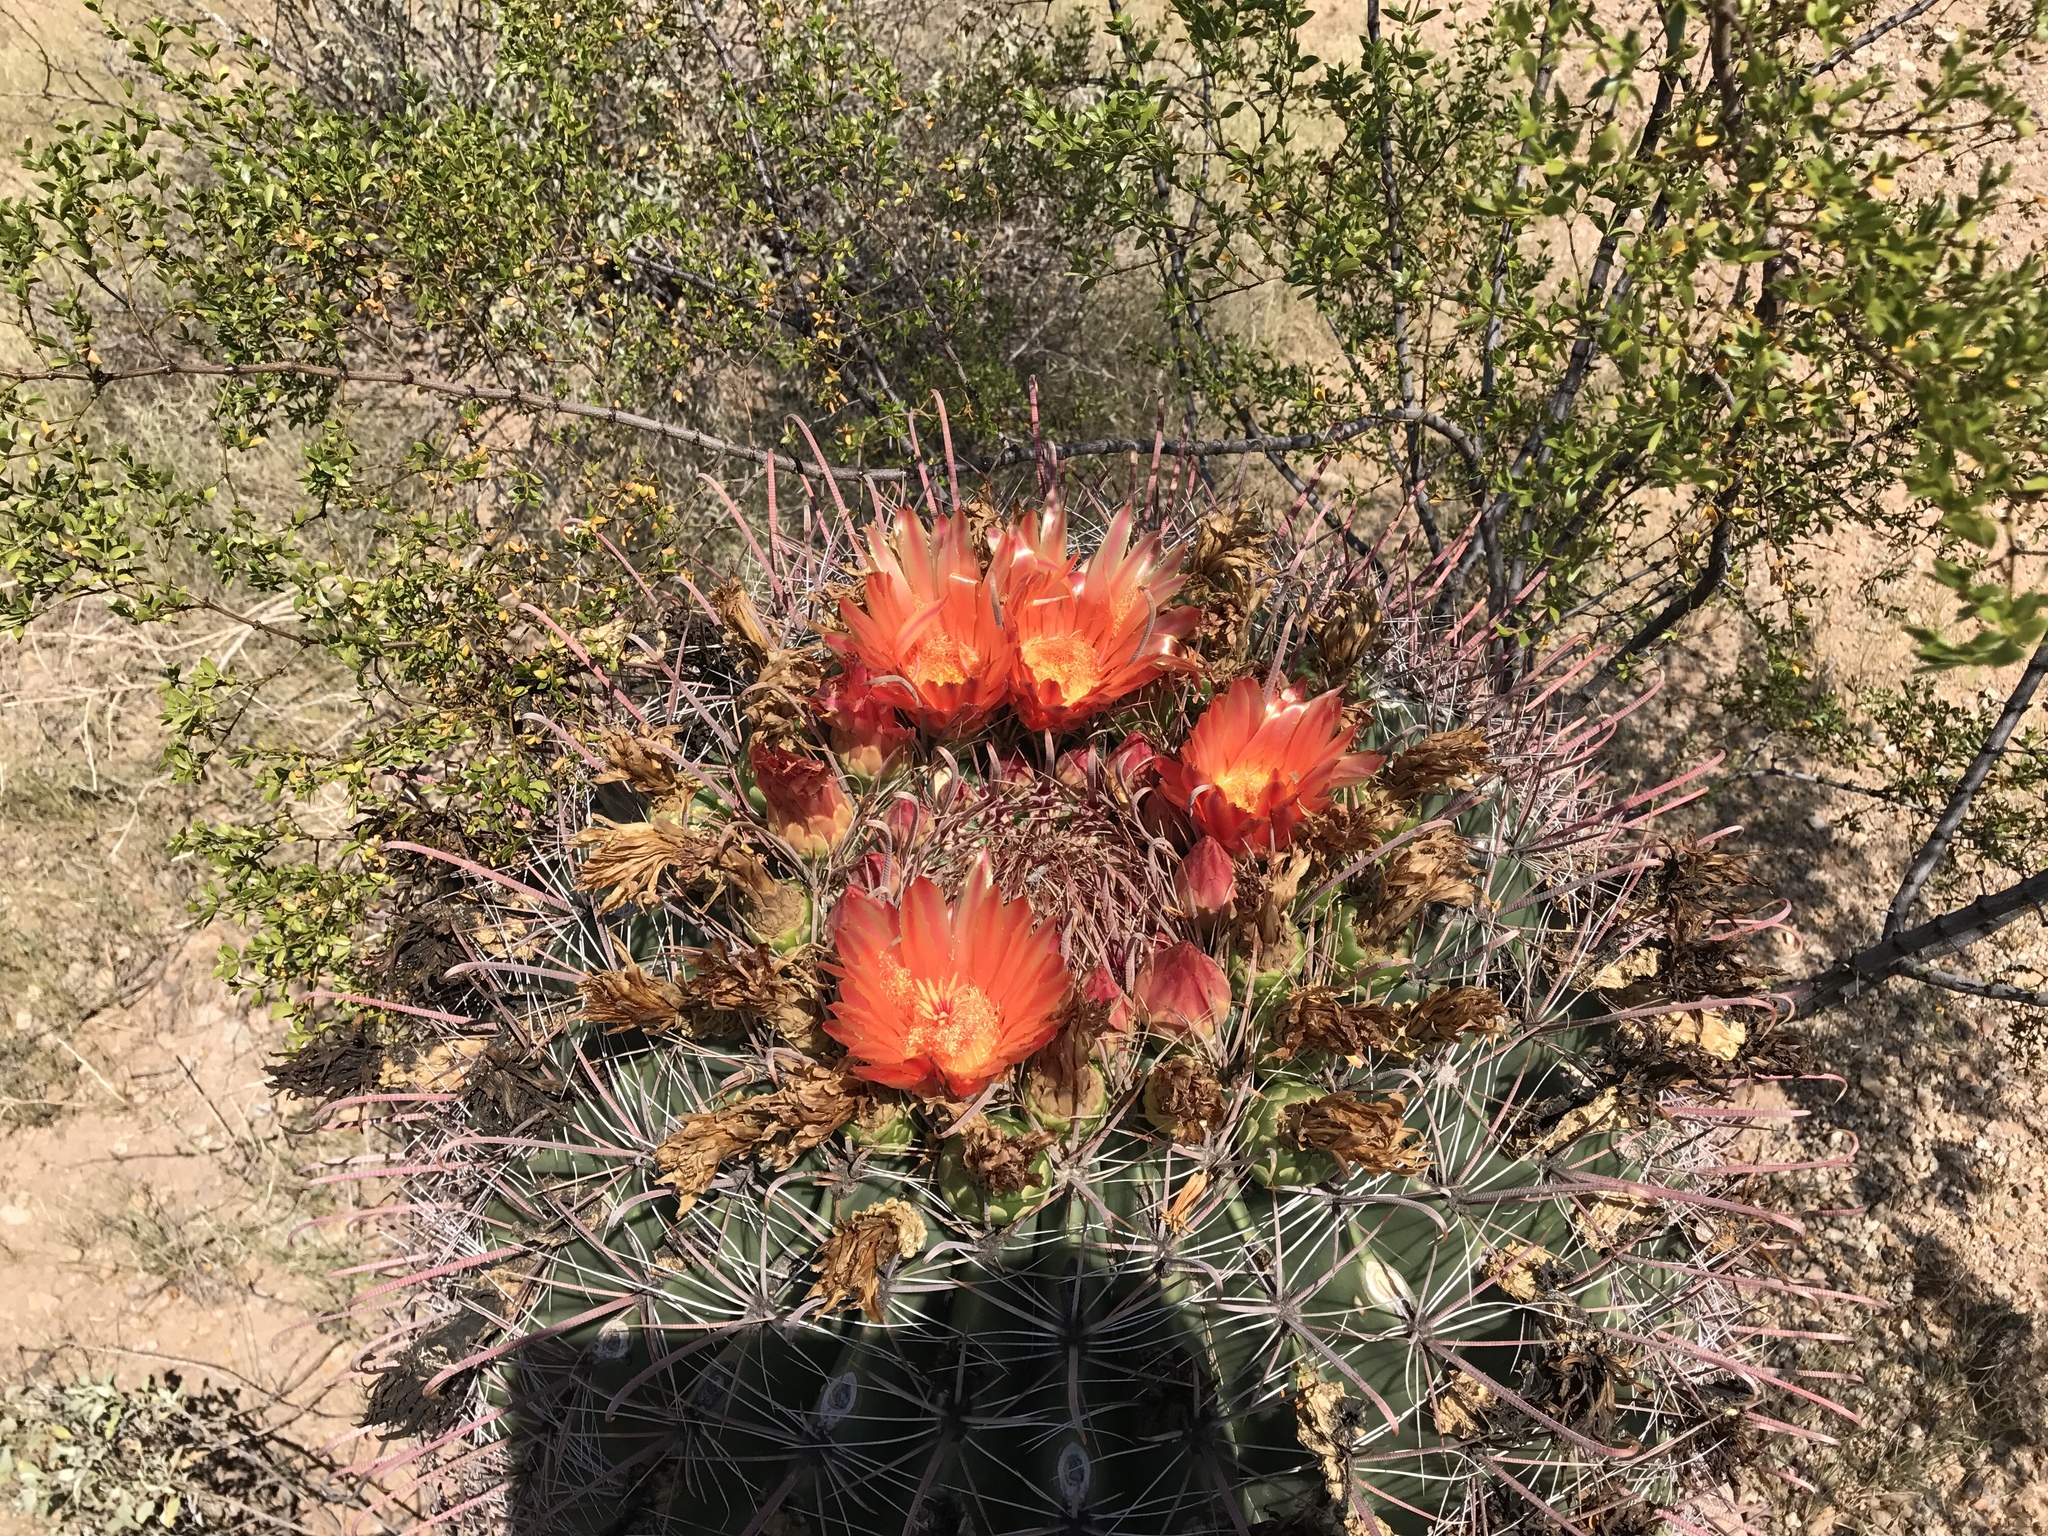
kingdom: Plantae
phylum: Tracheophyta
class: Magnoliopsida
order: Caryophyllales
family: Cactaceae
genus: Ferocactus
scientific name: Ferocactus wislizeni
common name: Candy barrel cactus
